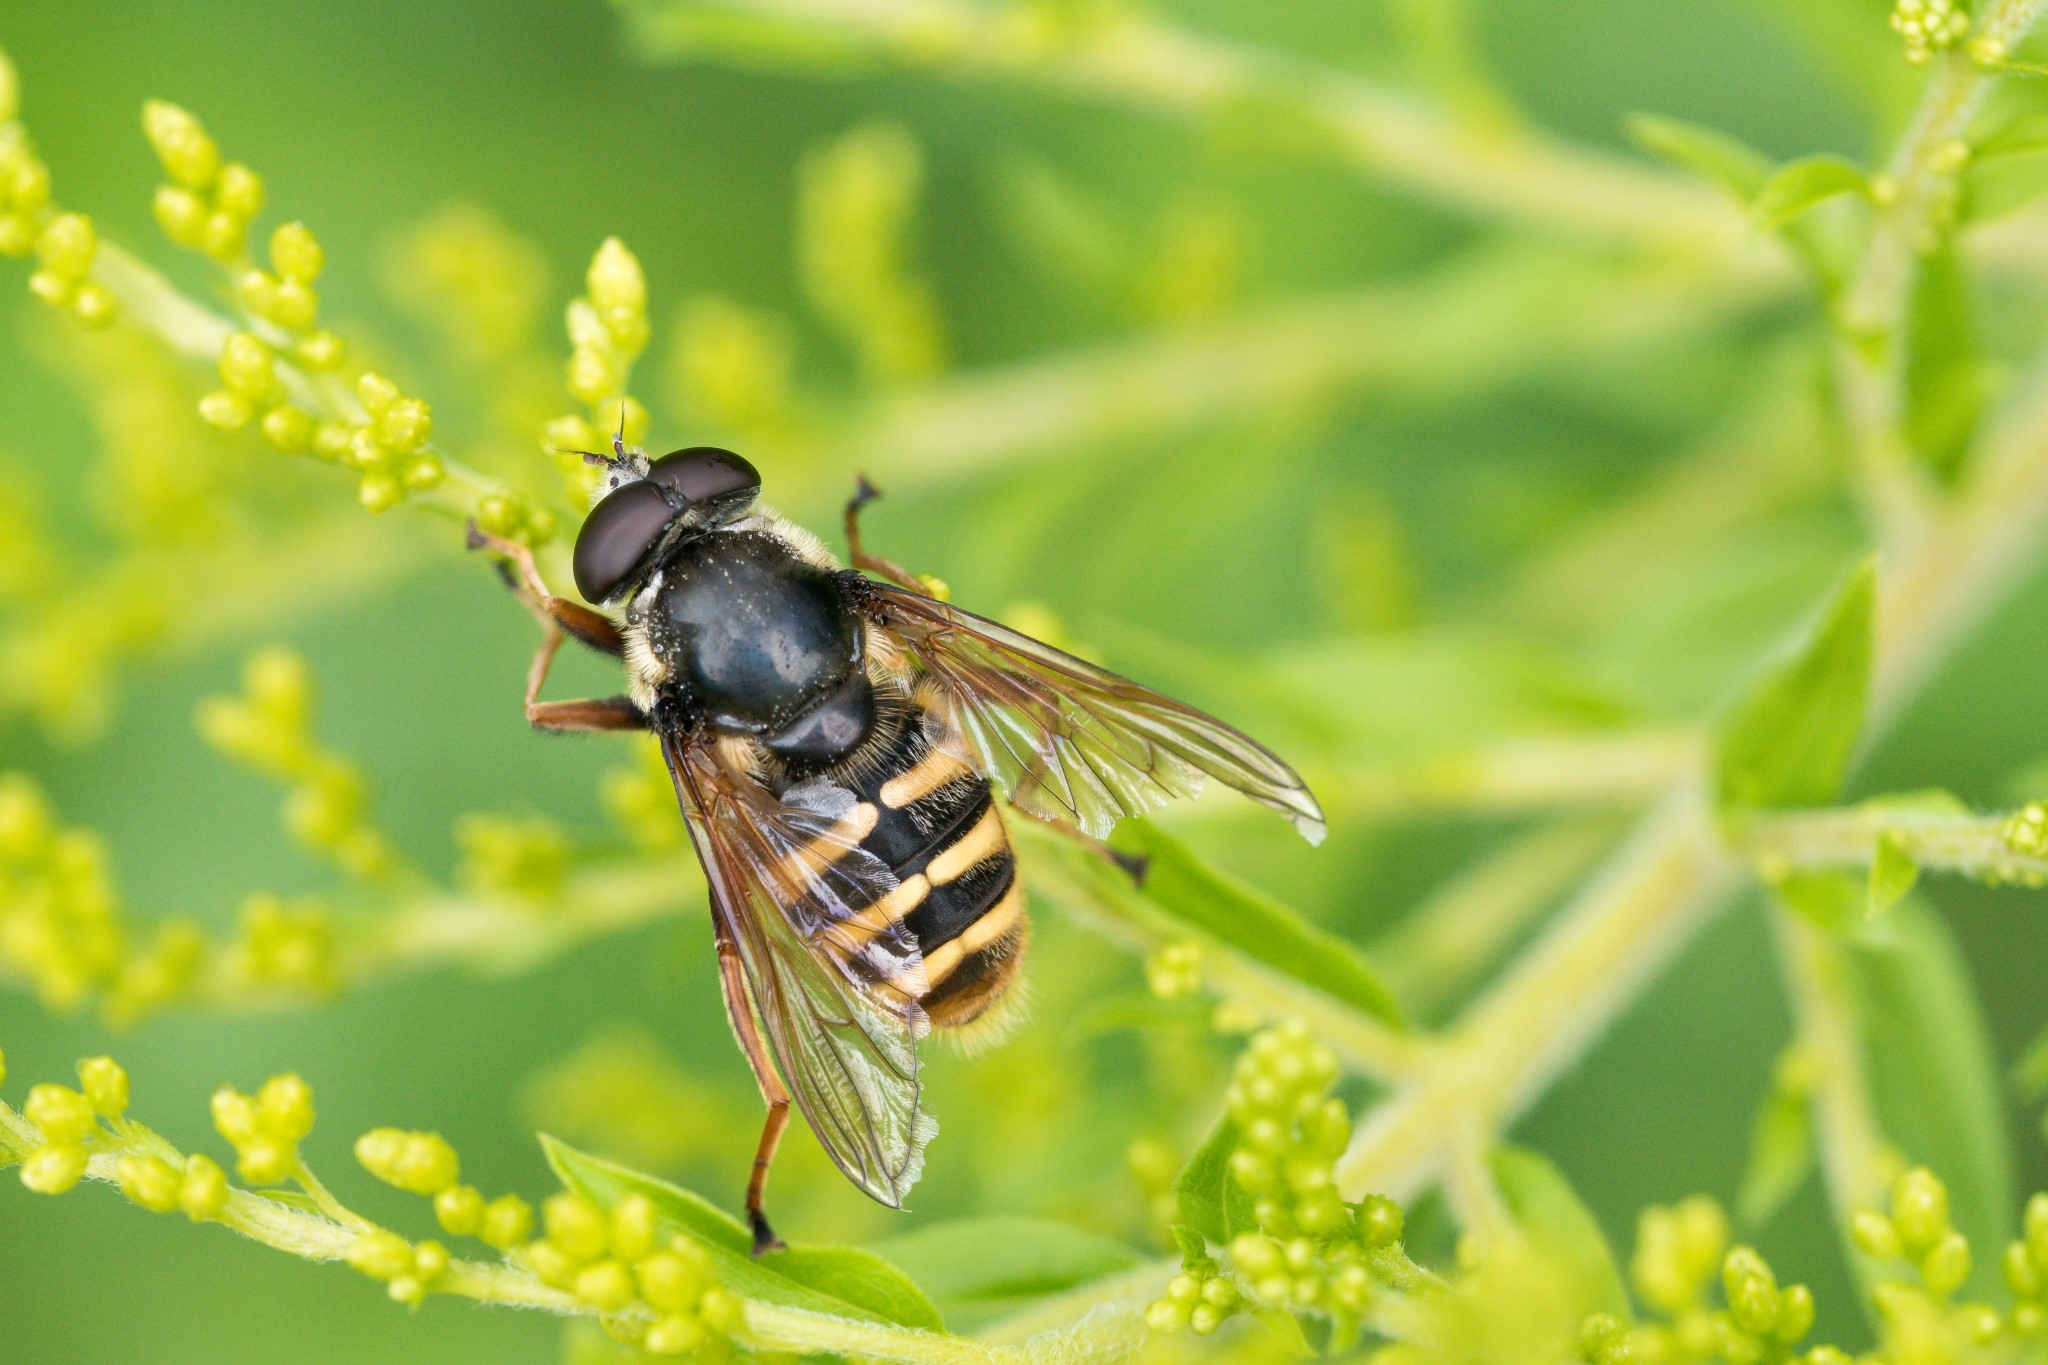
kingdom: Animalia
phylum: Arthropoda
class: Insecta
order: Diptera
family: Syrphidae
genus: Sericomyia
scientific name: Sericomyia silentis
